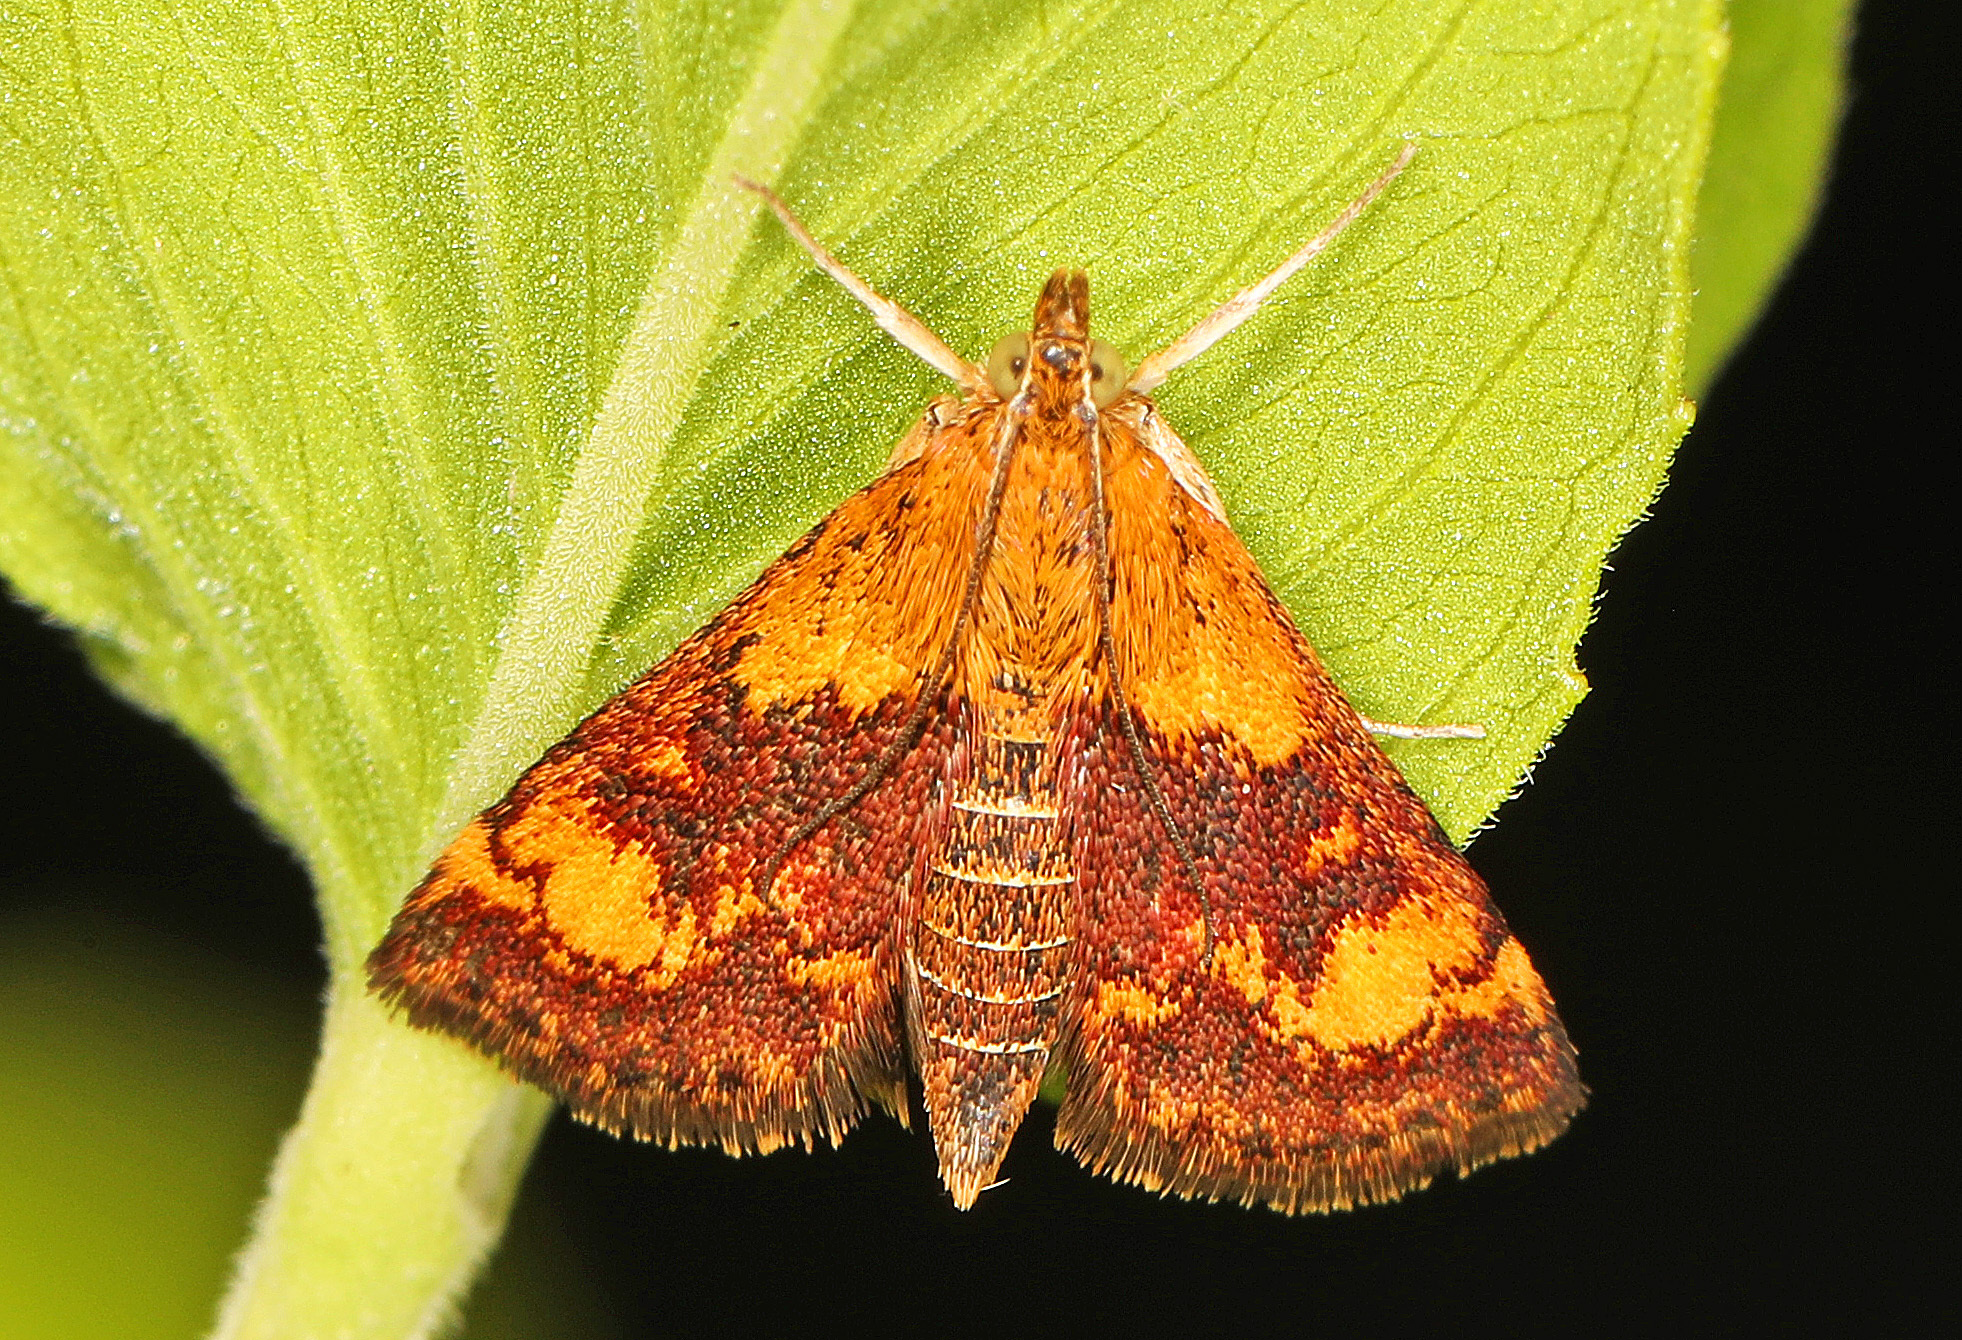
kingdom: Animalia
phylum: Arthropoda
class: Insecta
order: Lepidoptera
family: Crambidae
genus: Pyrausta
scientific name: Pyrausta orphisalis
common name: Orange mint moth
